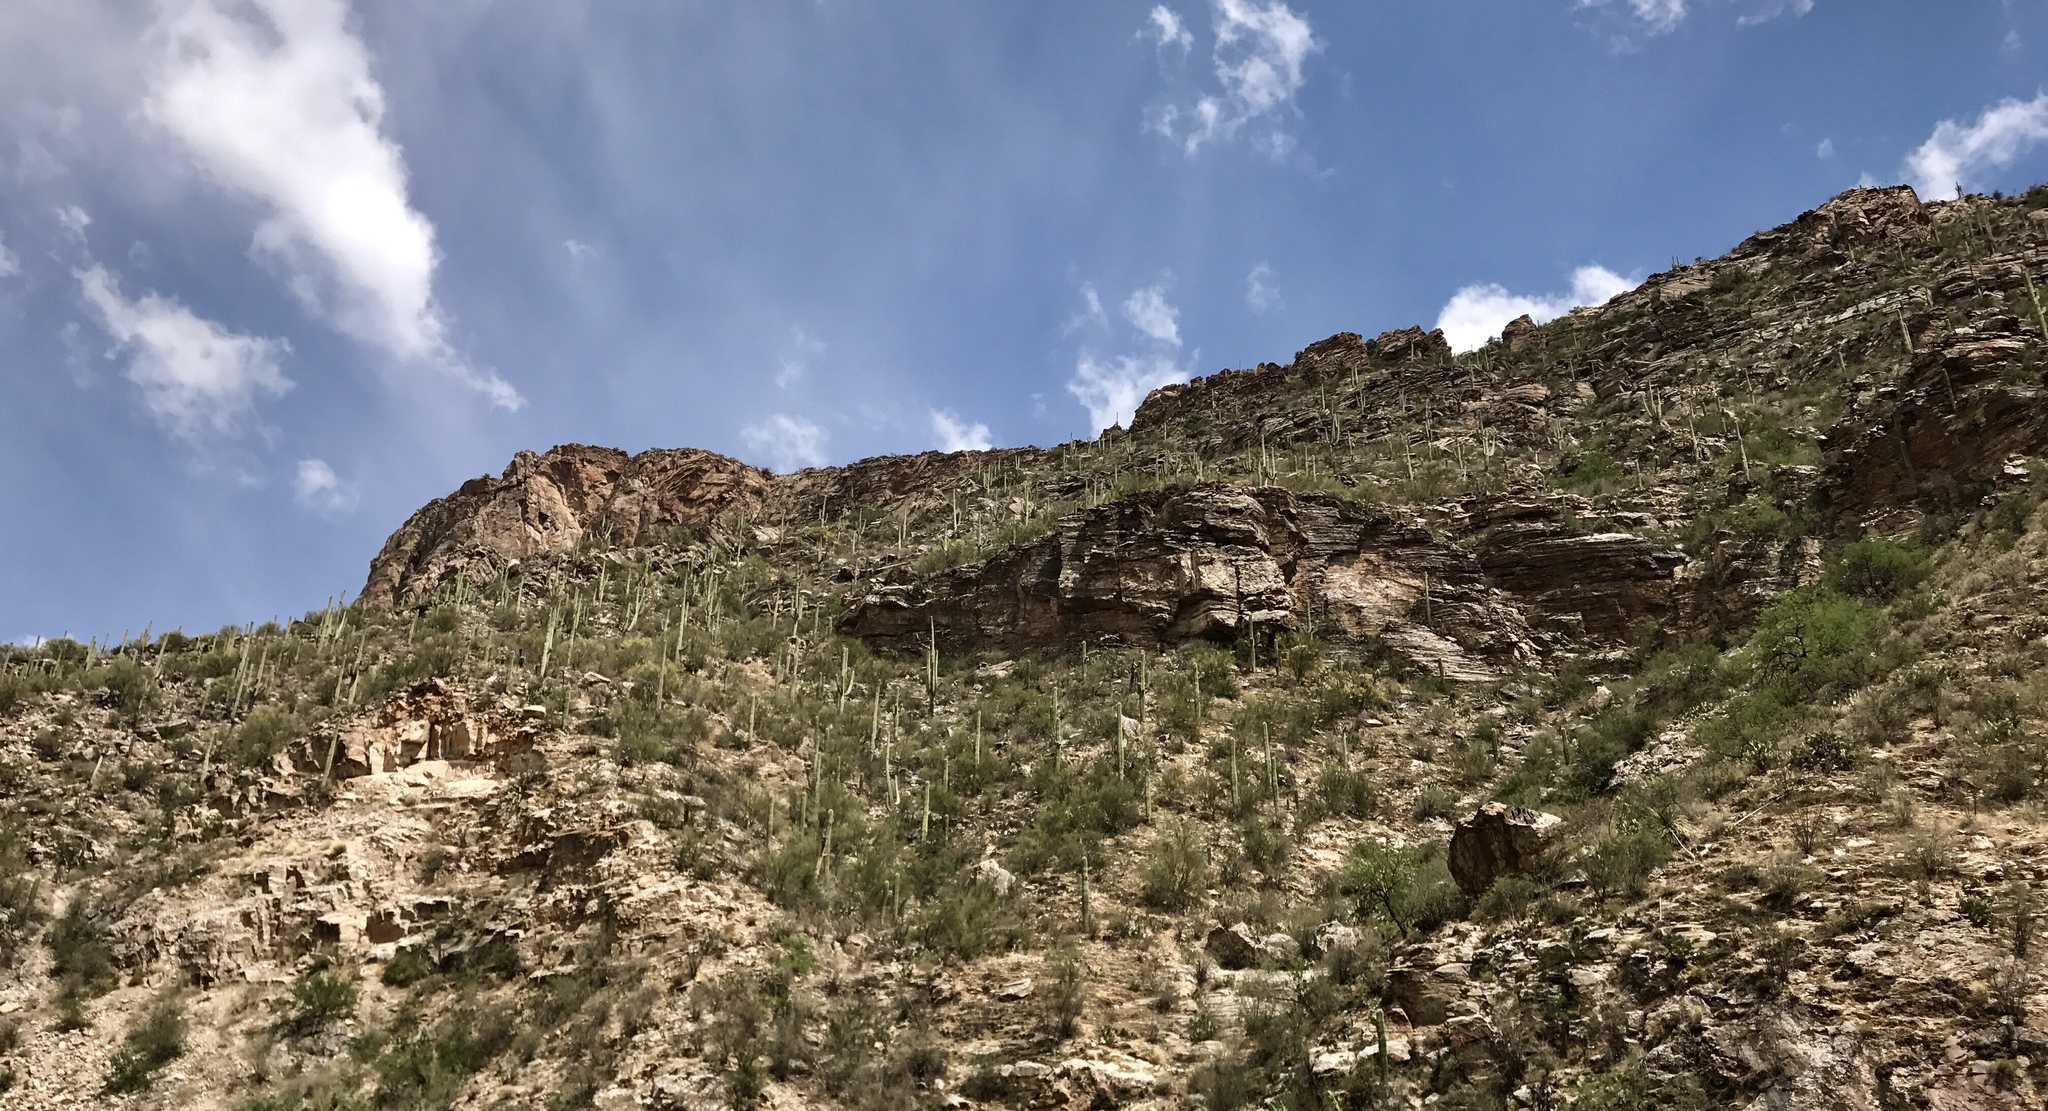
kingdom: Plantae
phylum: Tracheophyta
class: Magnoliopsida
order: Caryophyllales
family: Cactaceae
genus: Carnegiea
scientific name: Carnegiea gigantea
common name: Saguaro
